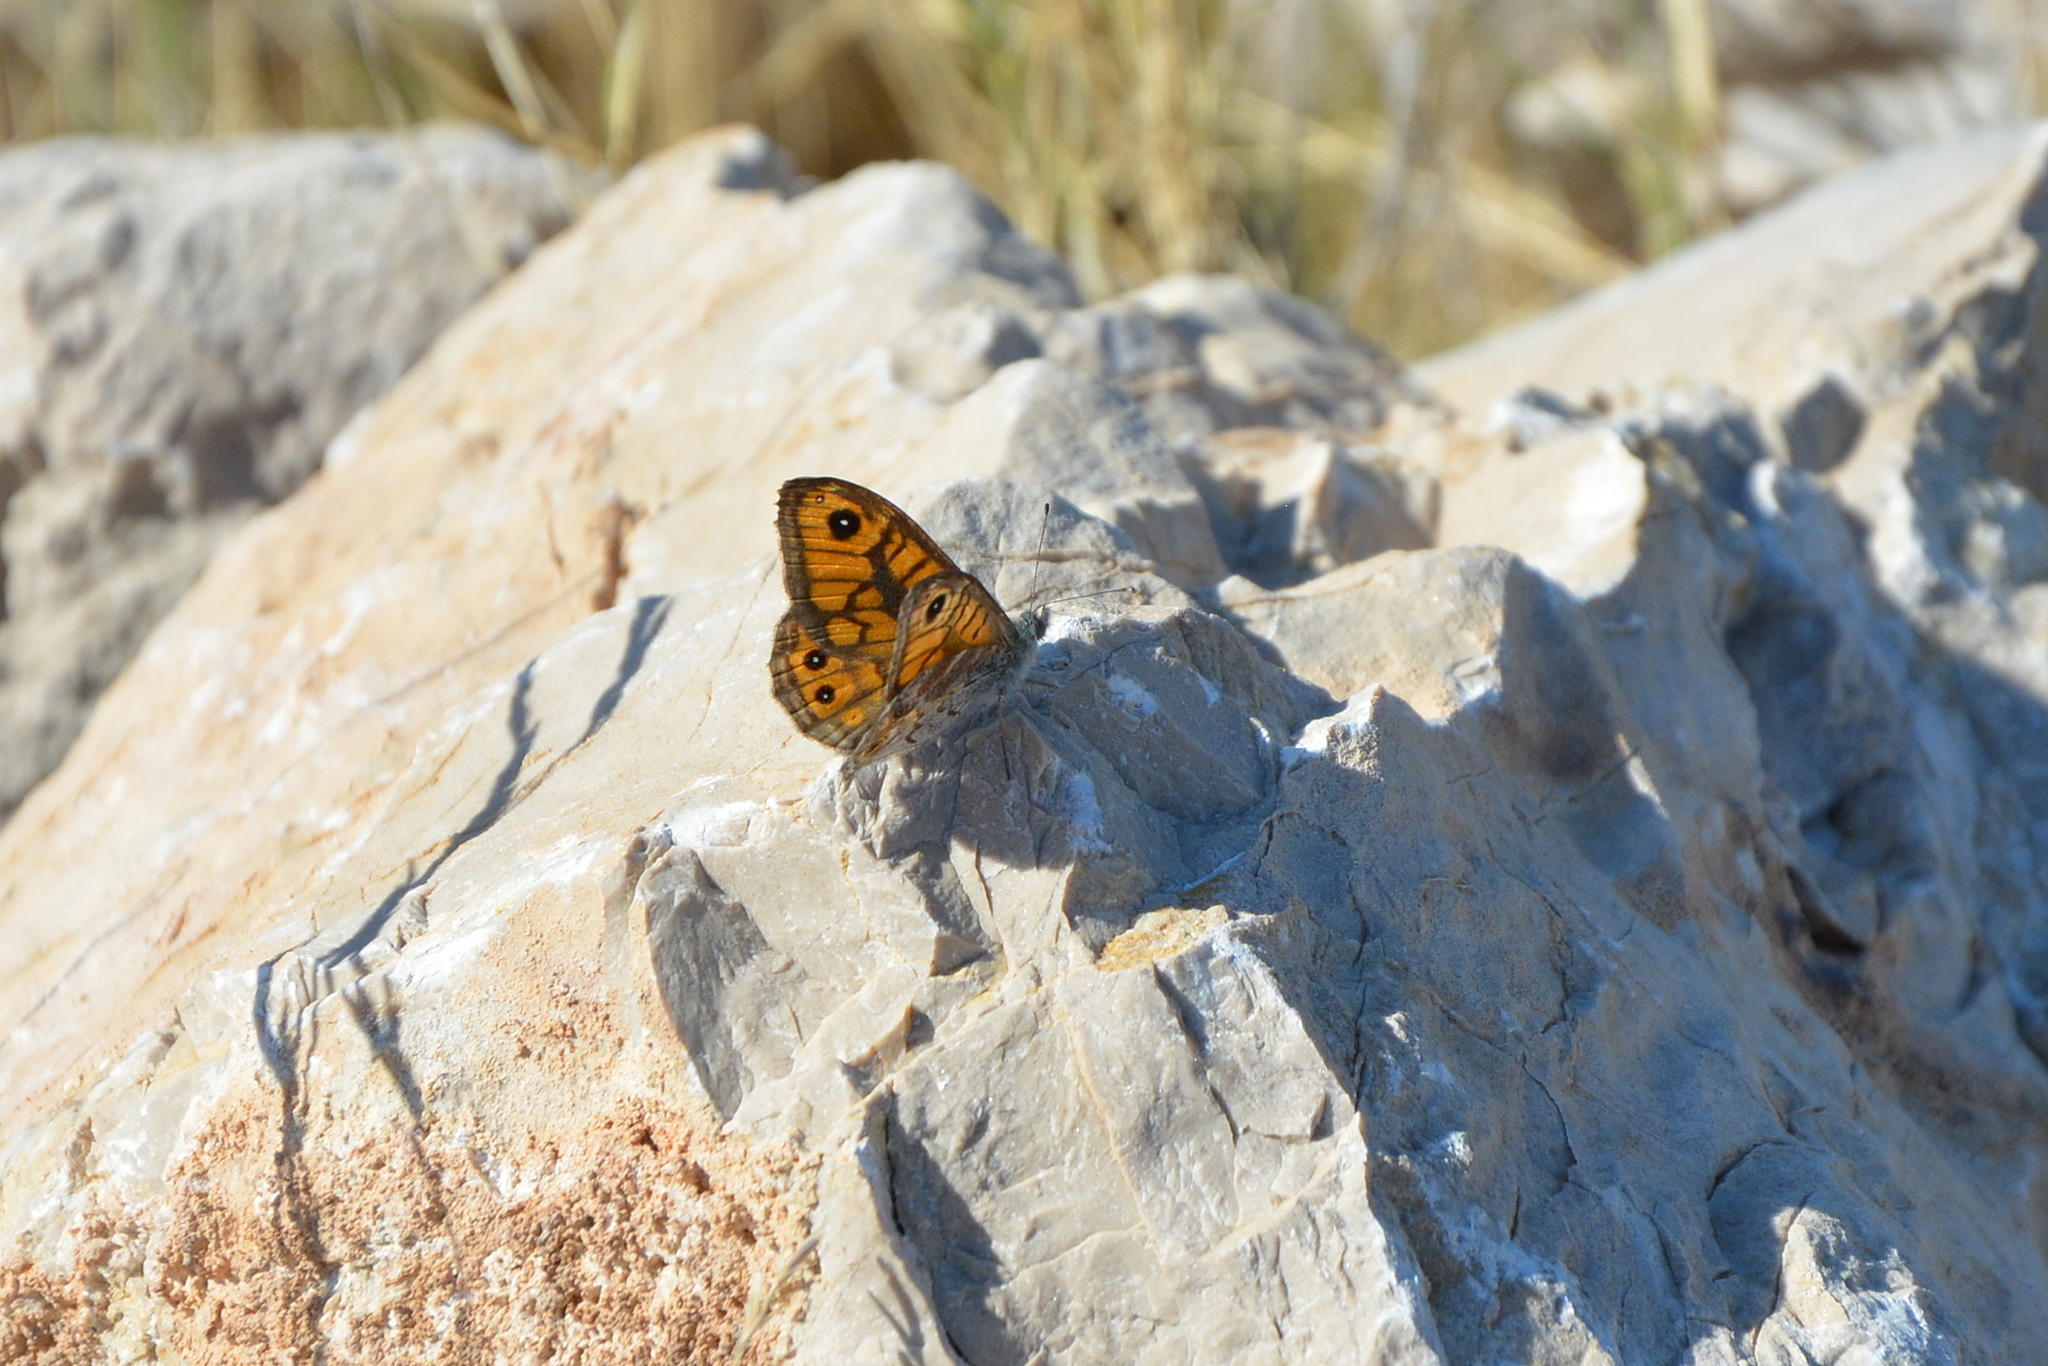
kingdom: Animalia
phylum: Arthropoda
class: Insecta
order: Lepidoptera
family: Nymphalidae
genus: Pararge
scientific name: Pararge Lasiommata megera
